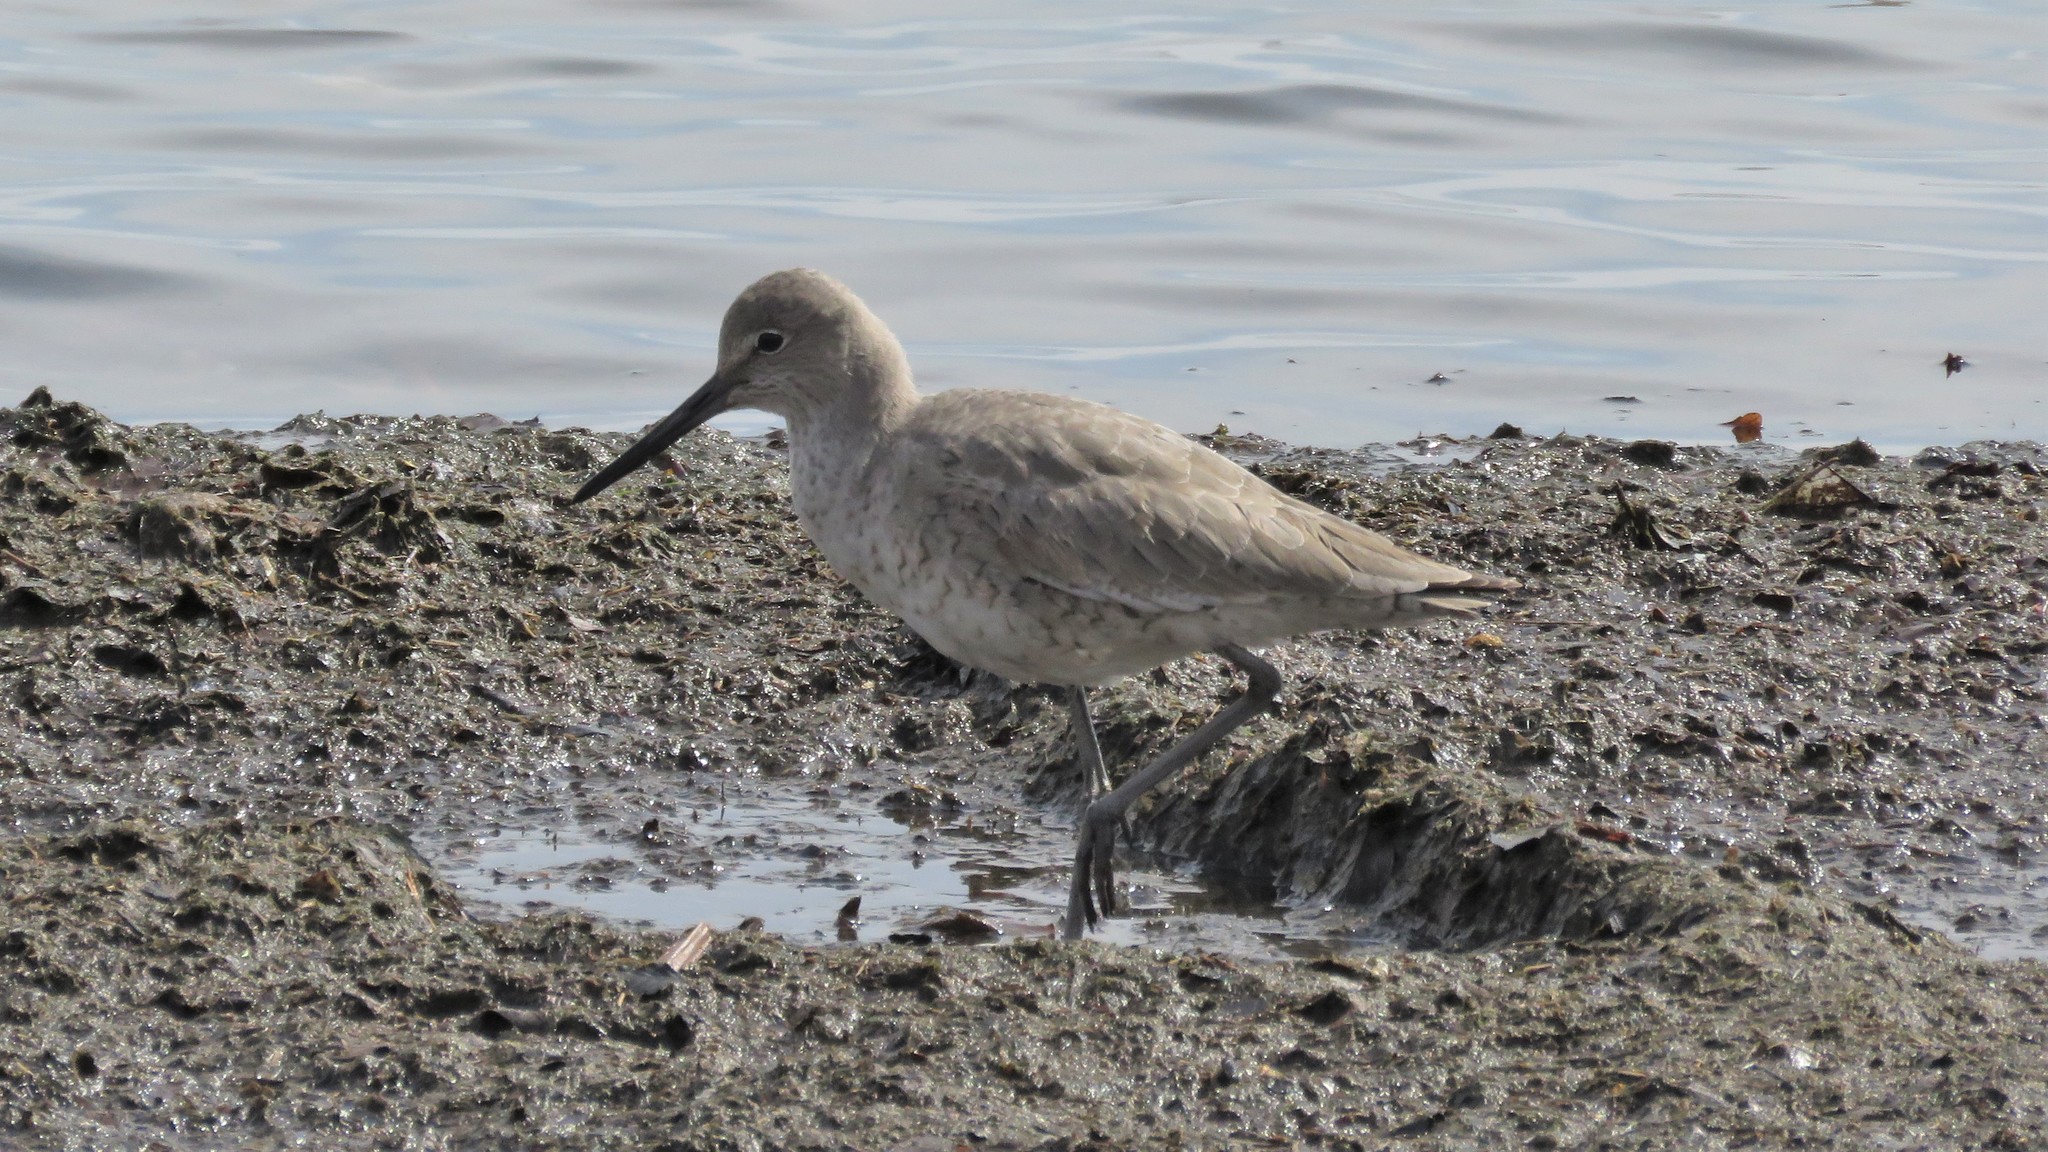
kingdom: Animalia
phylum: Chordata
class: Aves
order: Charadriiformes
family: Scolopacidae
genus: Tringa
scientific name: Tringa semipalmata
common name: Willet
